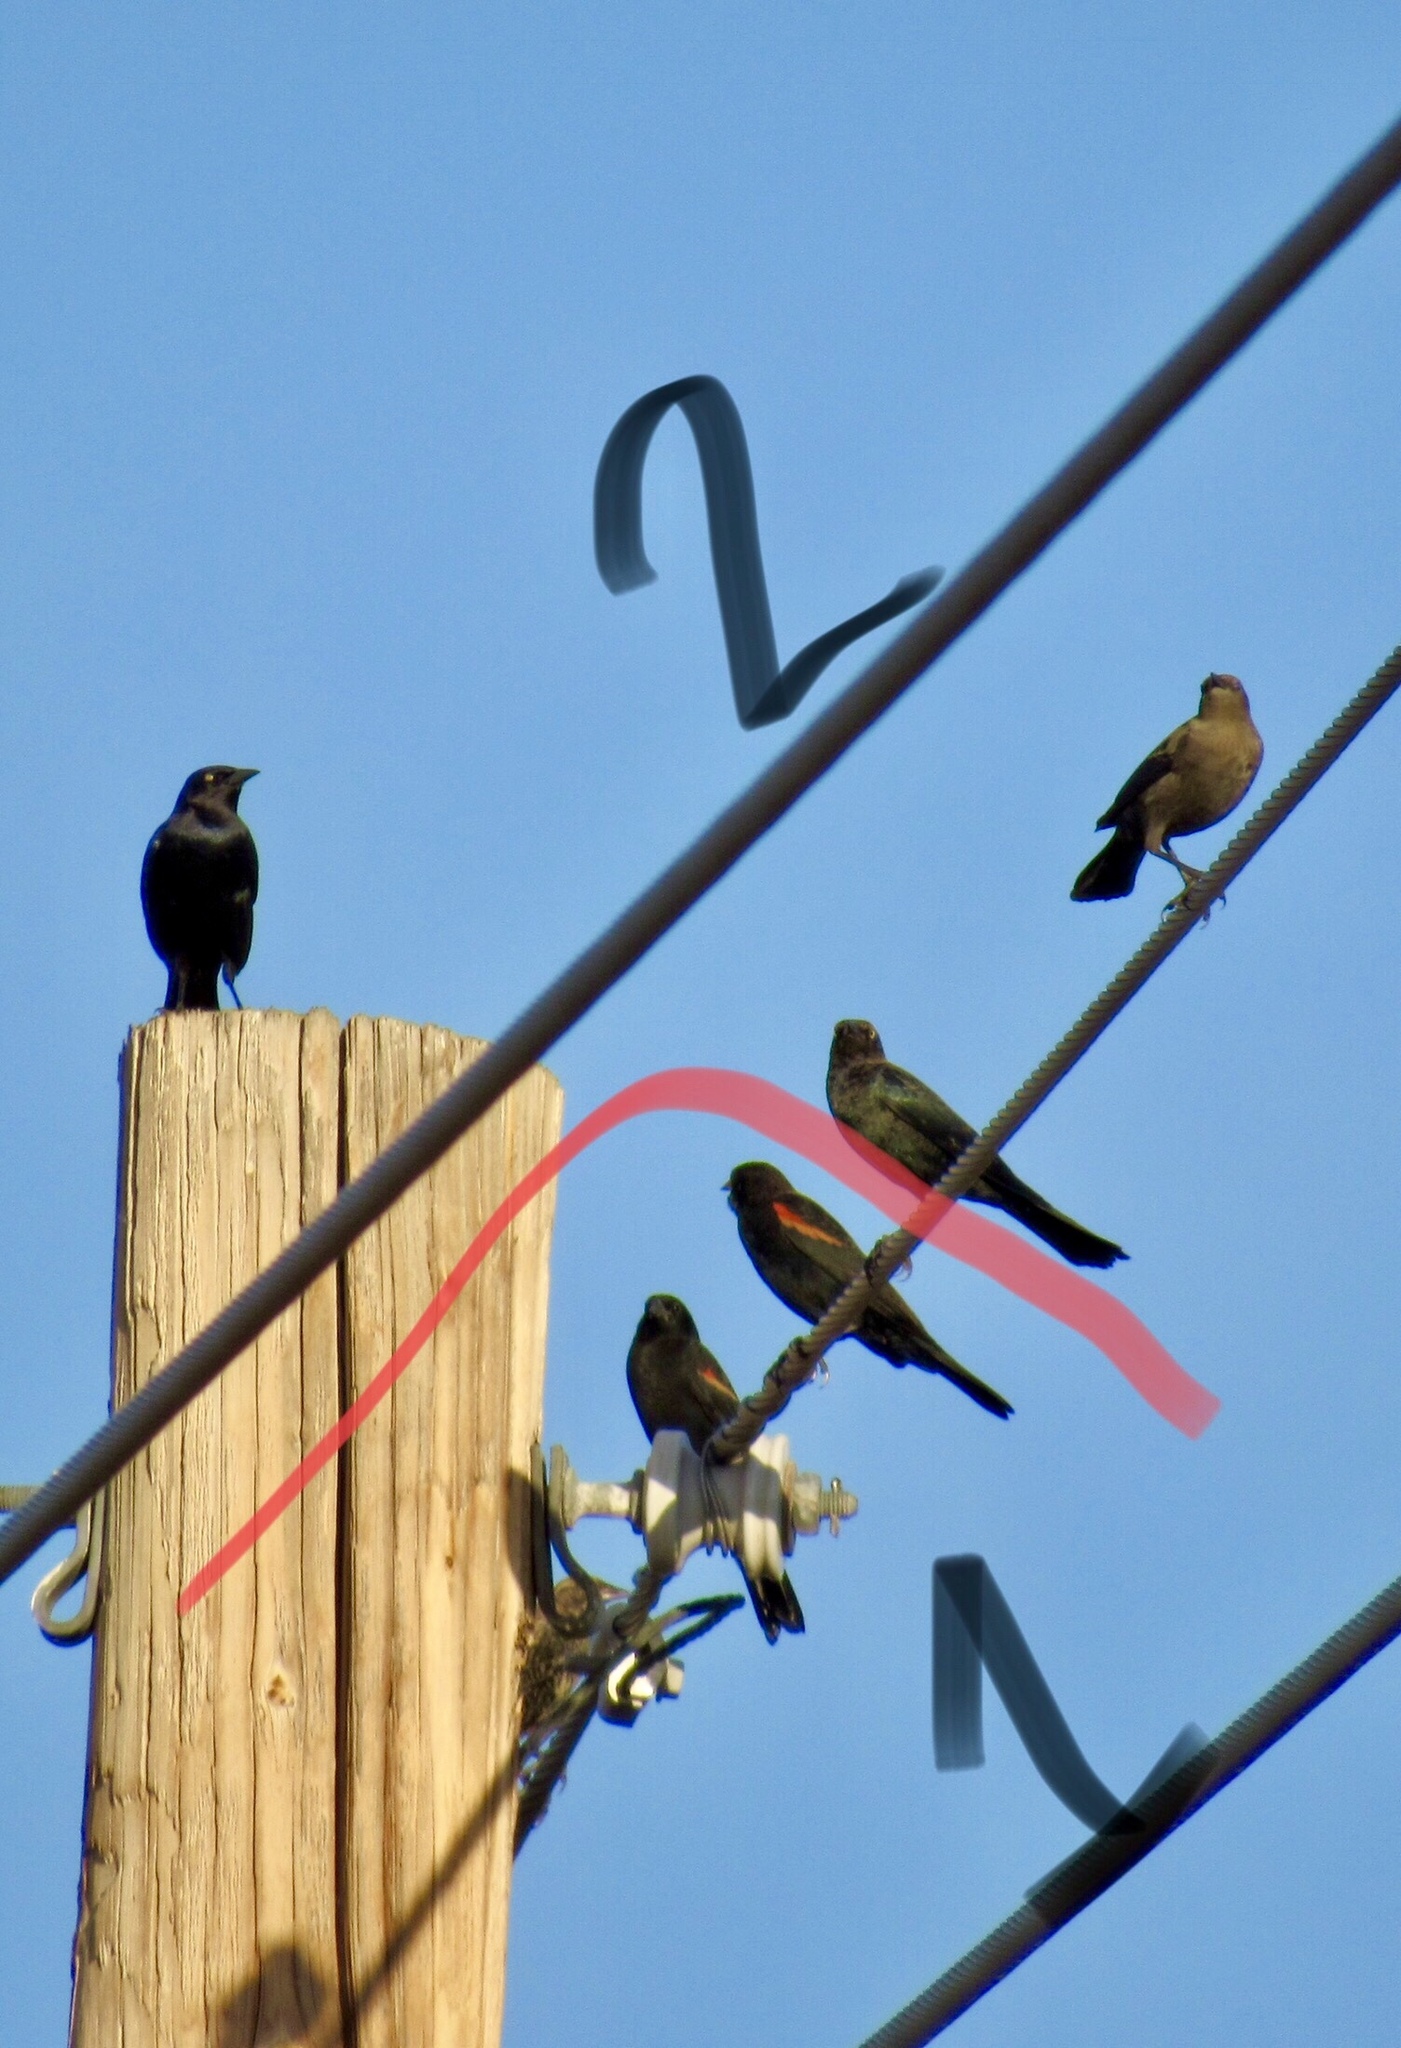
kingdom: Animalia
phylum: Chordata
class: Aves
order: Passeriformes
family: Icteridae
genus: Euphagus
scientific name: Euphagus cyanocephalus
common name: Brewer's blackbird
